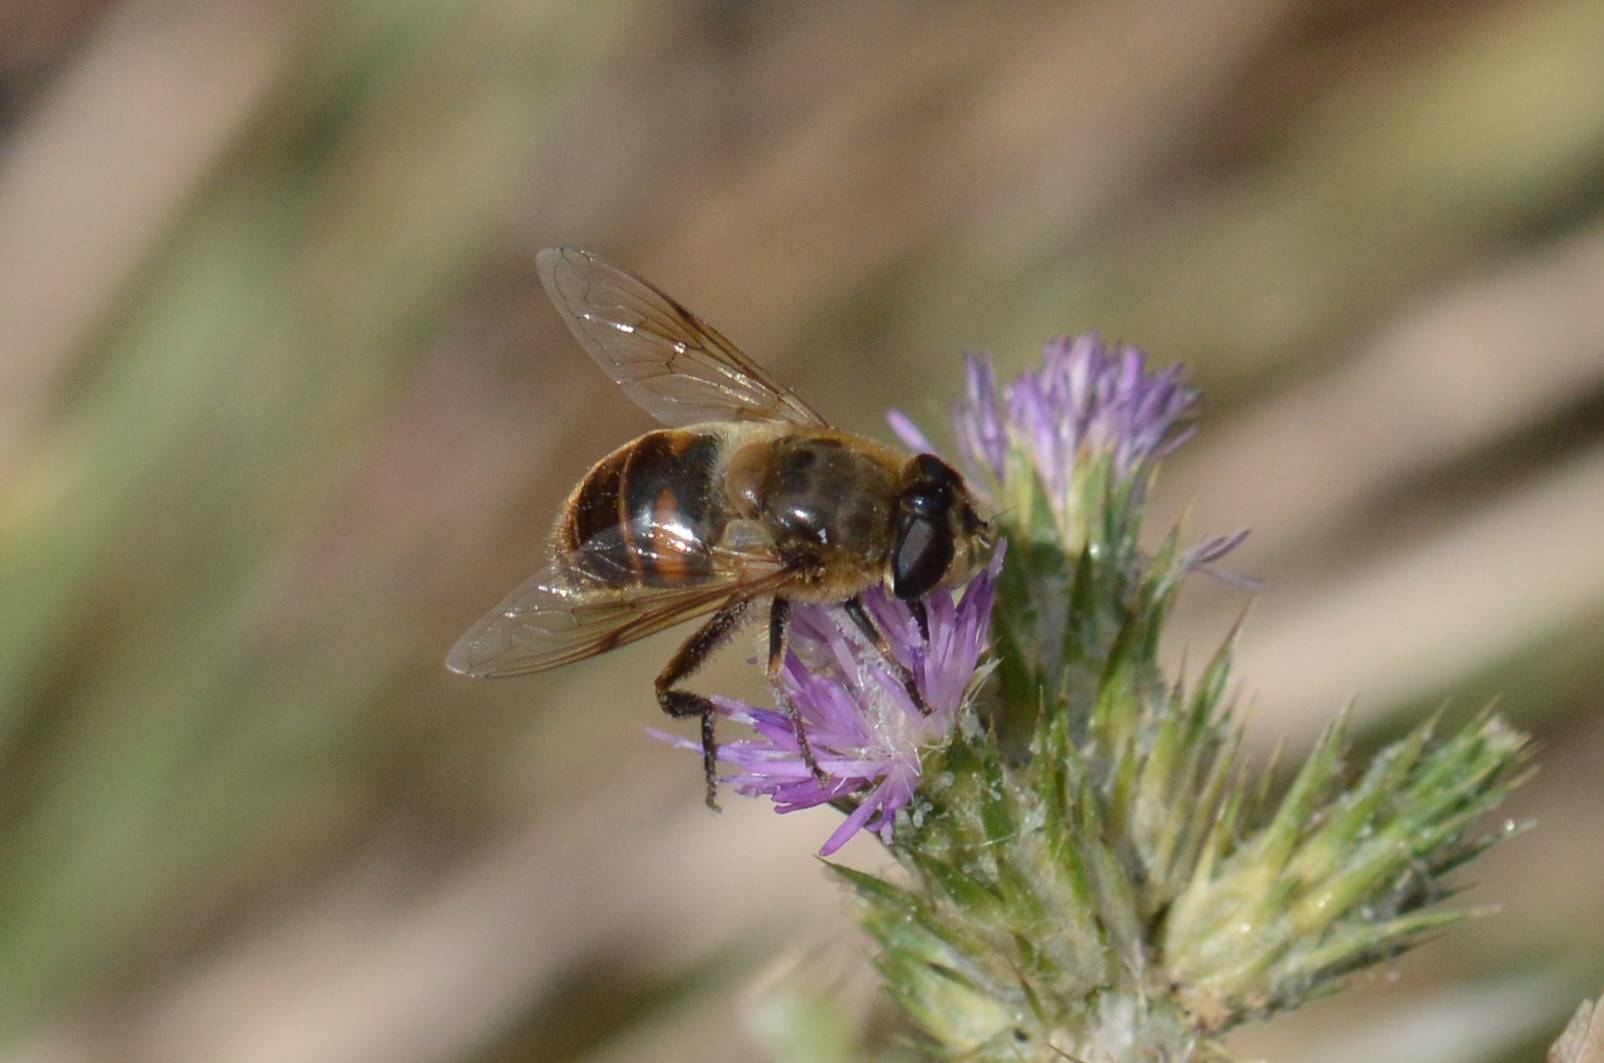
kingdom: Animalia
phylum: Arthropoda
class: Insecta
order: Diptera
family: Syrphidae
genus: Eristalis
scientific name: Eristalis tenax
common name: Drone fly
